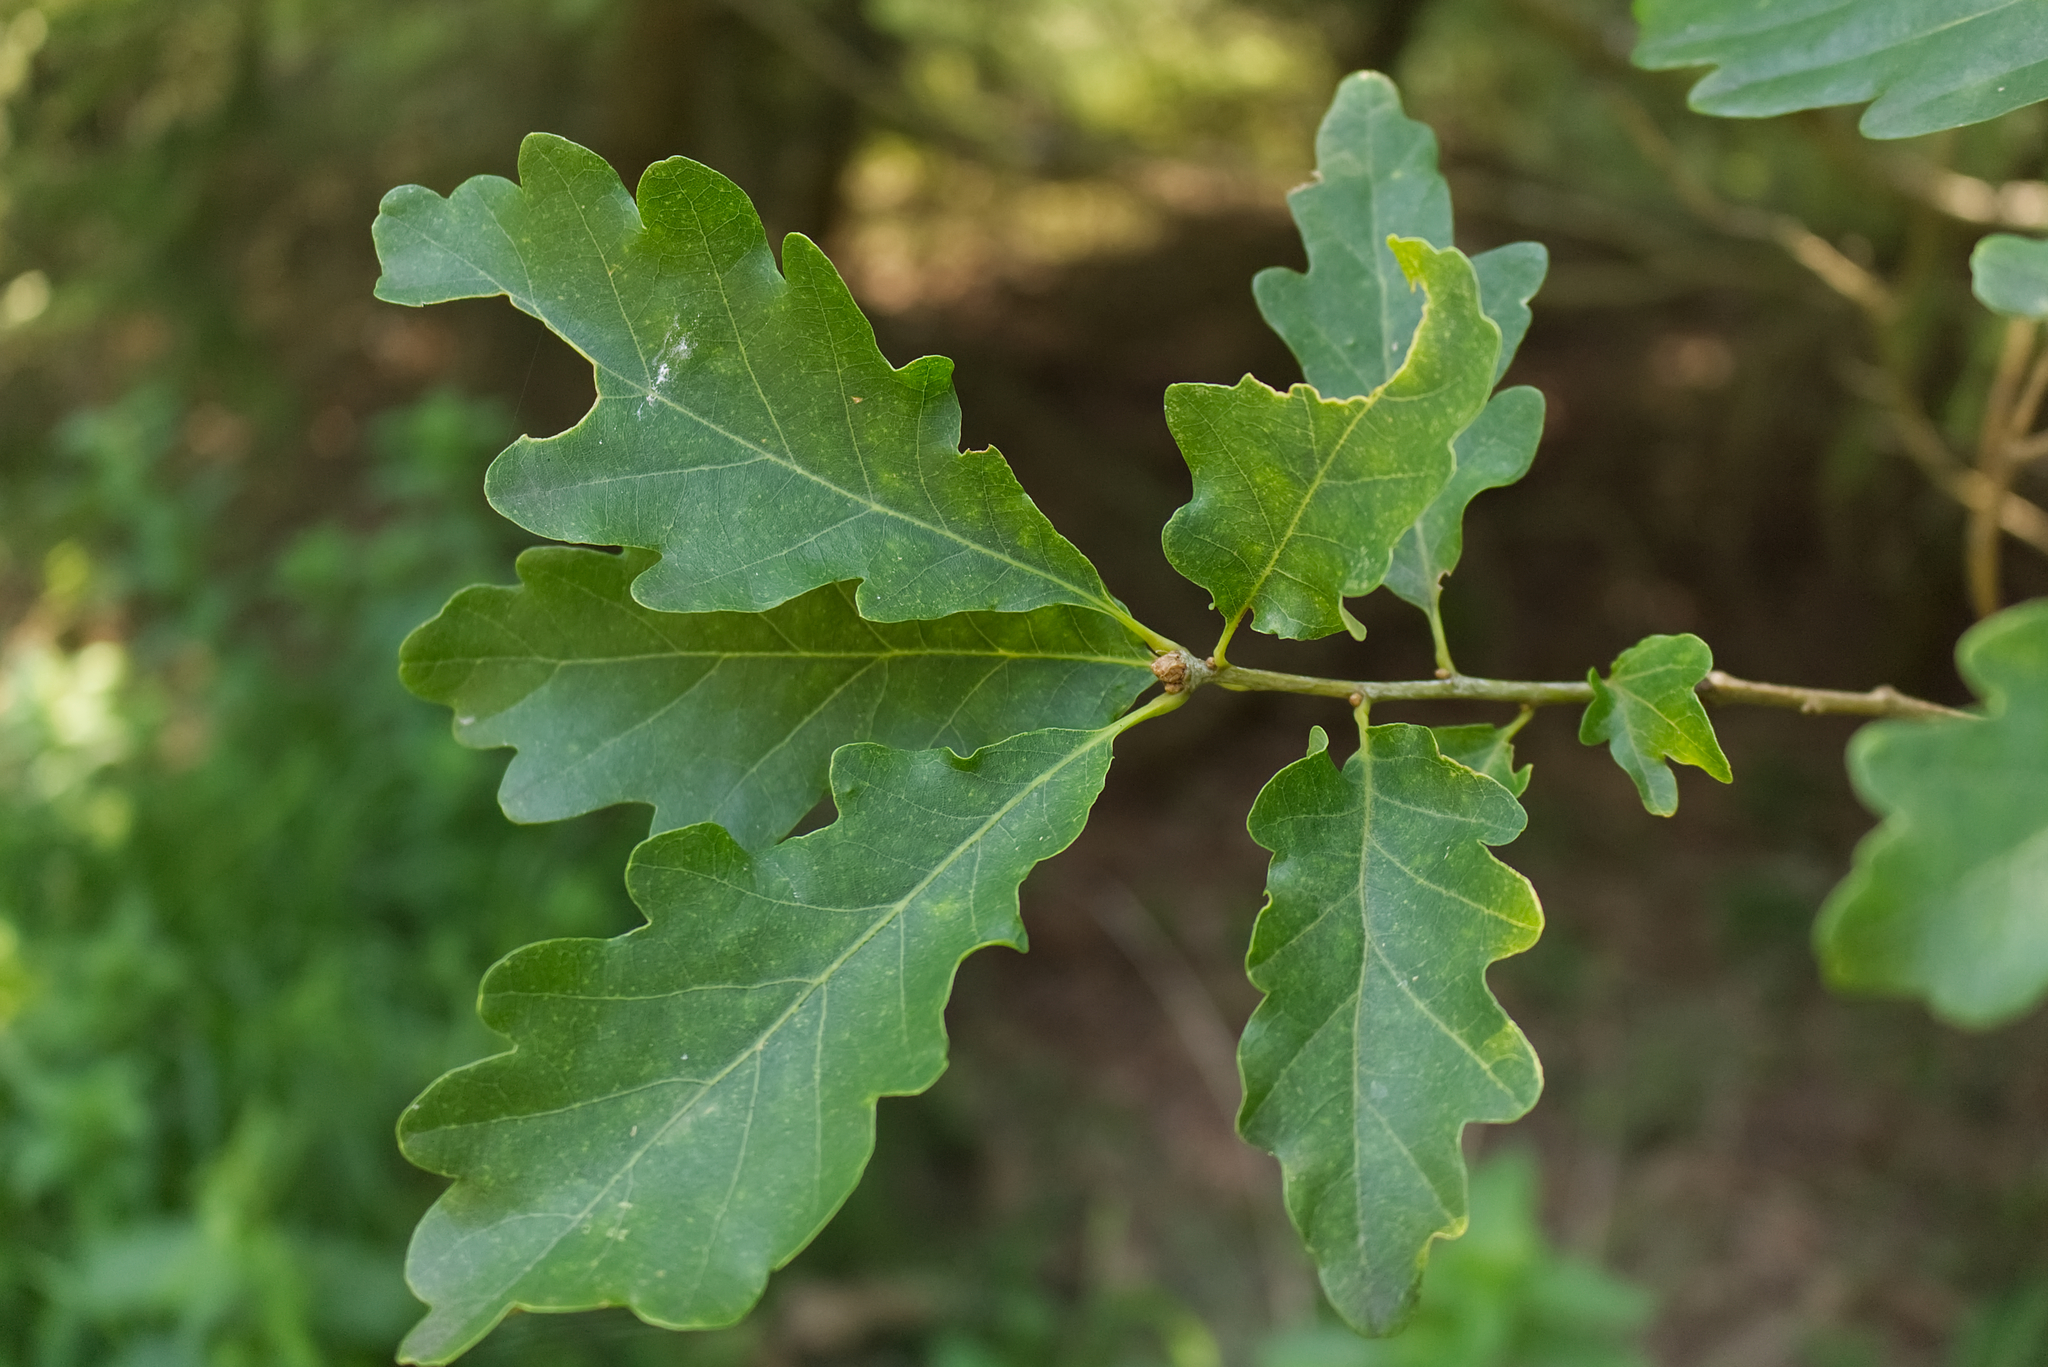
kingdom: Plantae
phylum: Tracheophyta
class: Magnoliopsida
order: Fagales
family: Fagaceae
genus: Quercus
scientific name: Quercus petraea
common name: Sessile oak
